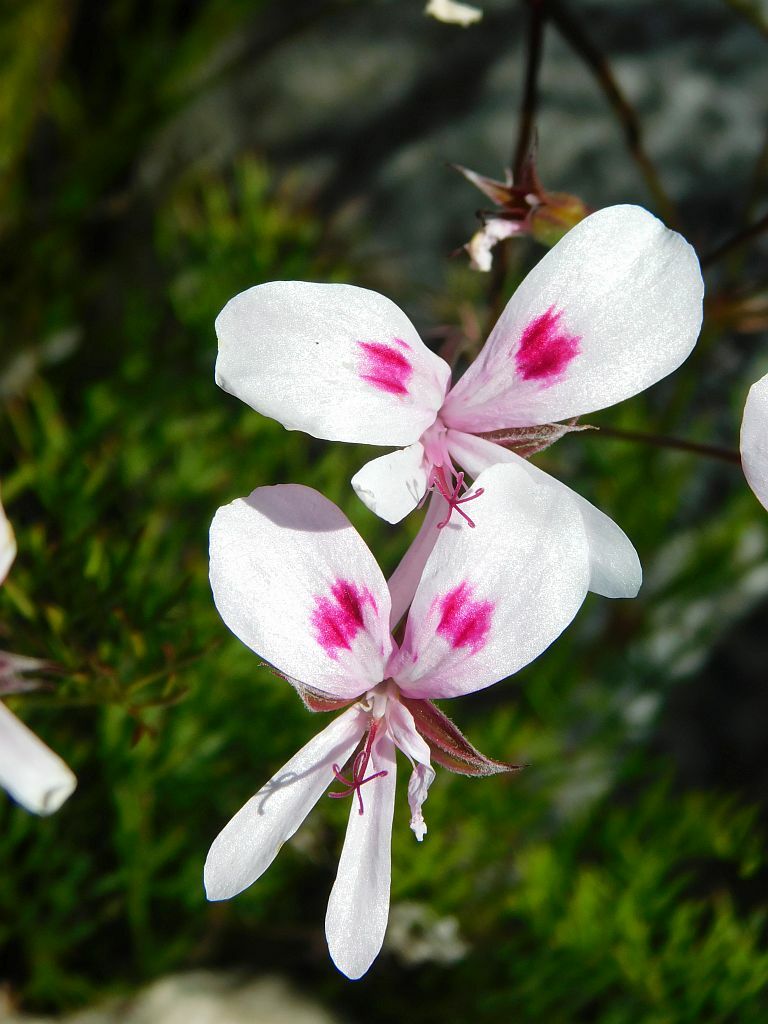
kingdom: Plantae
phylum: Tracheophyta
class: Magnoliopsida
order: Geraniales
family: Geraniaceae
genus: Pelargonium
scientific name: Pelargonium artemisiifolium
